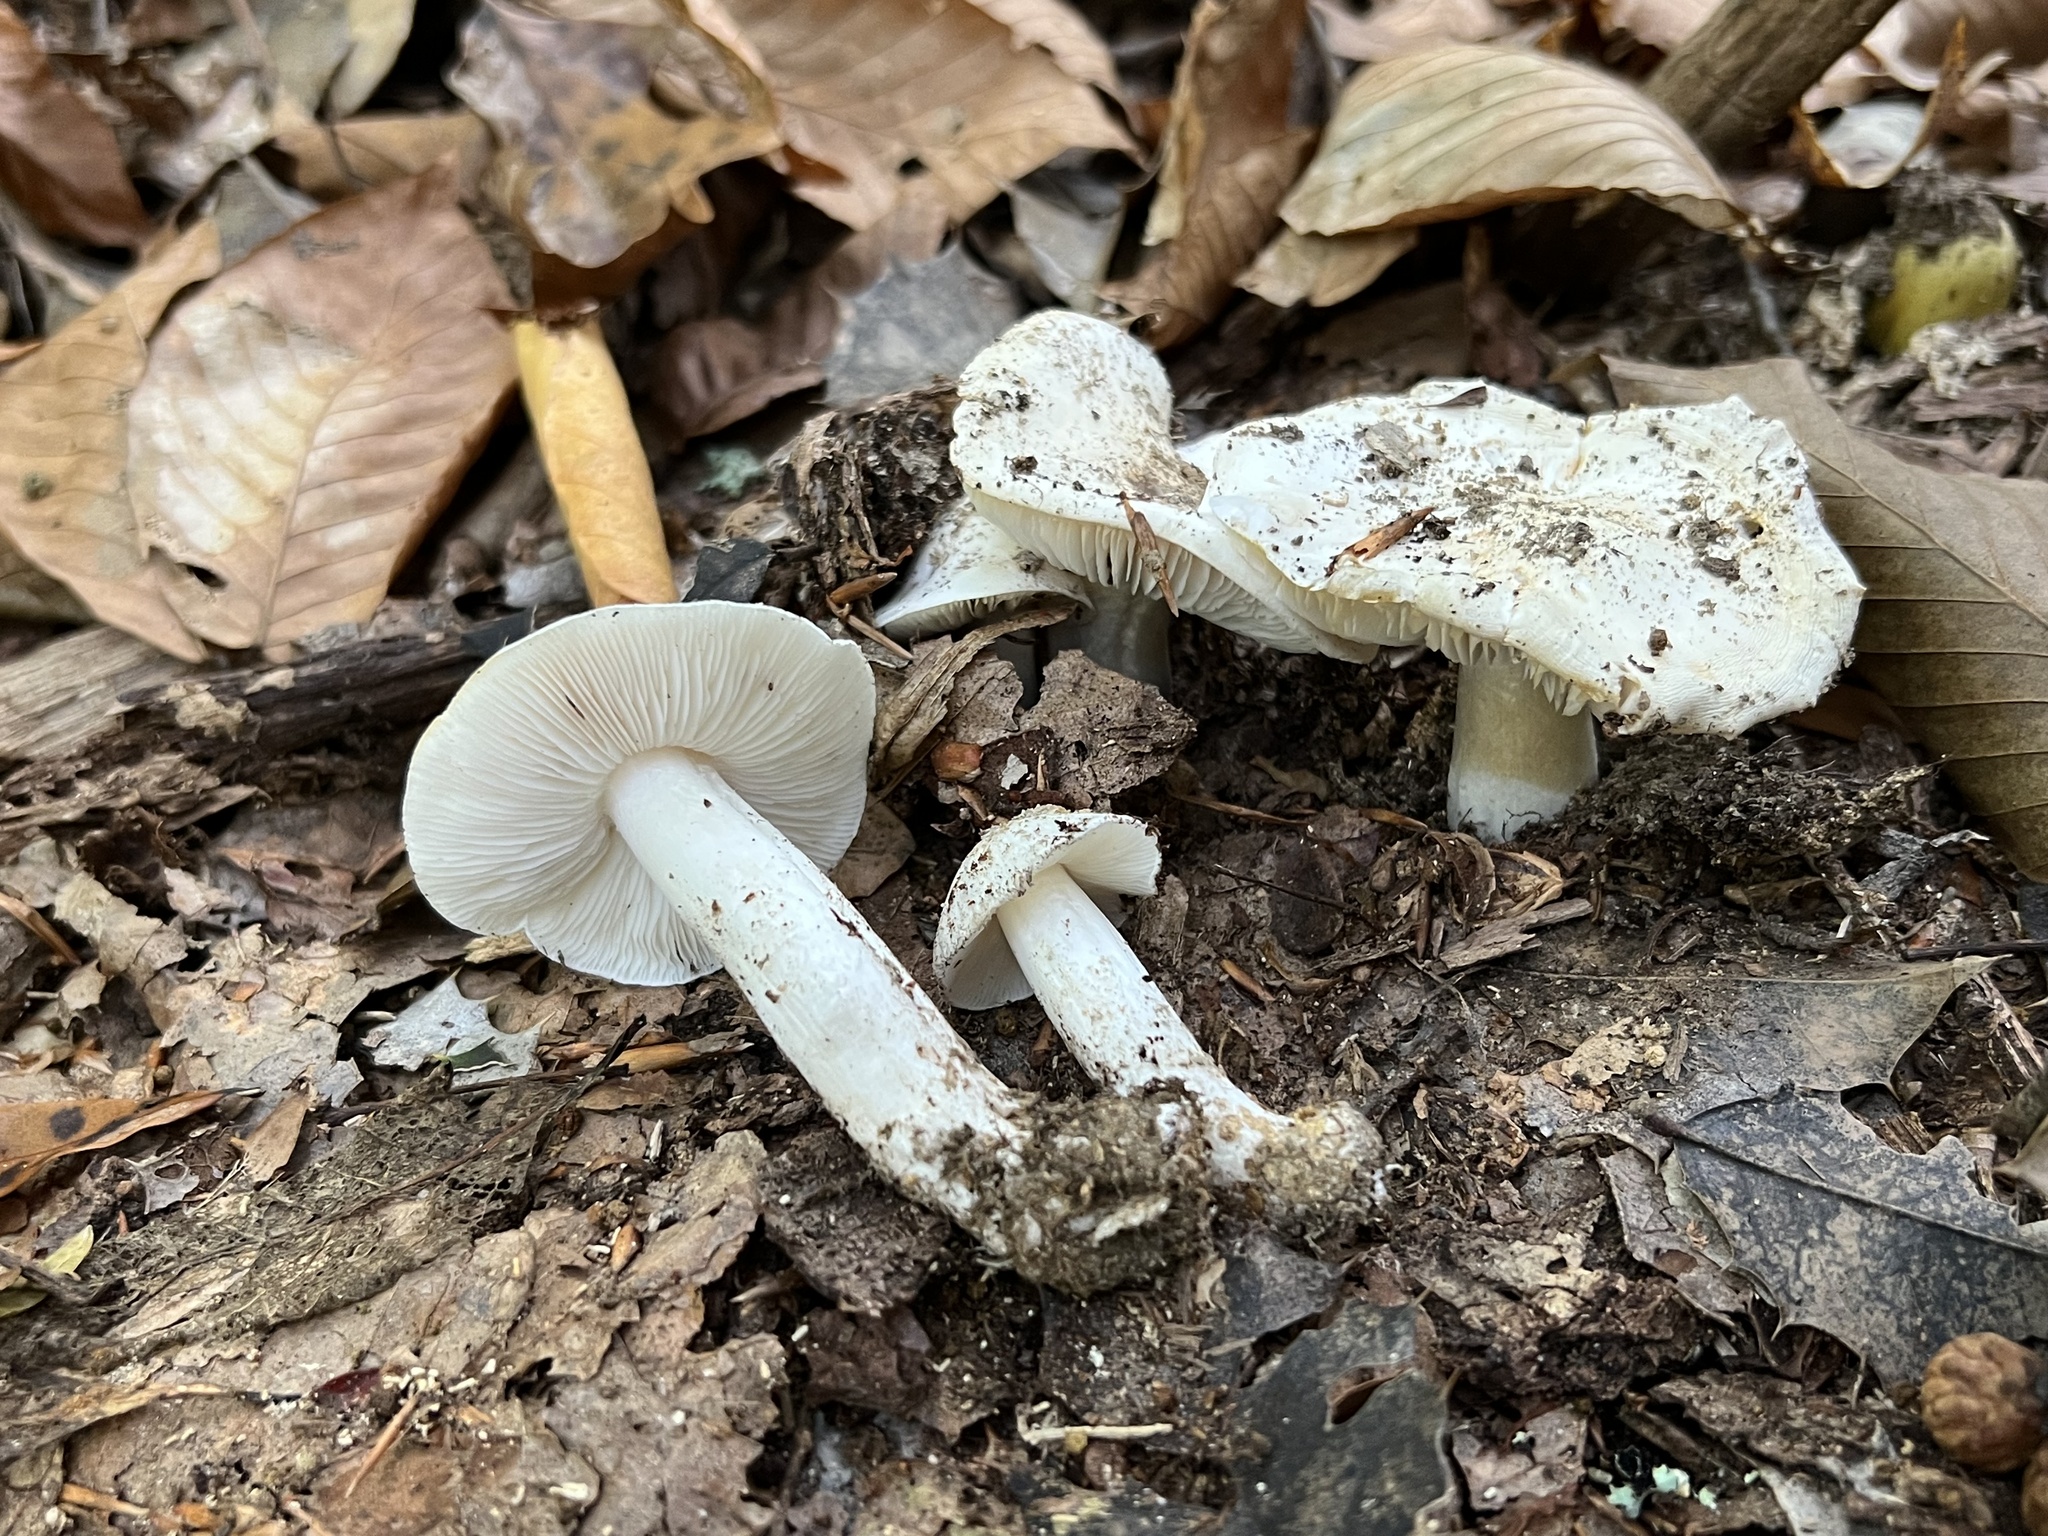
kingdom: Fungi
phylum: Basidiomycota
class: Agaricomycetes
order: Agaricales
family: Tricholomataceae
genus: Tricholoma
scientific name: Tricholoma columbetta
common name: Blue spot knight
